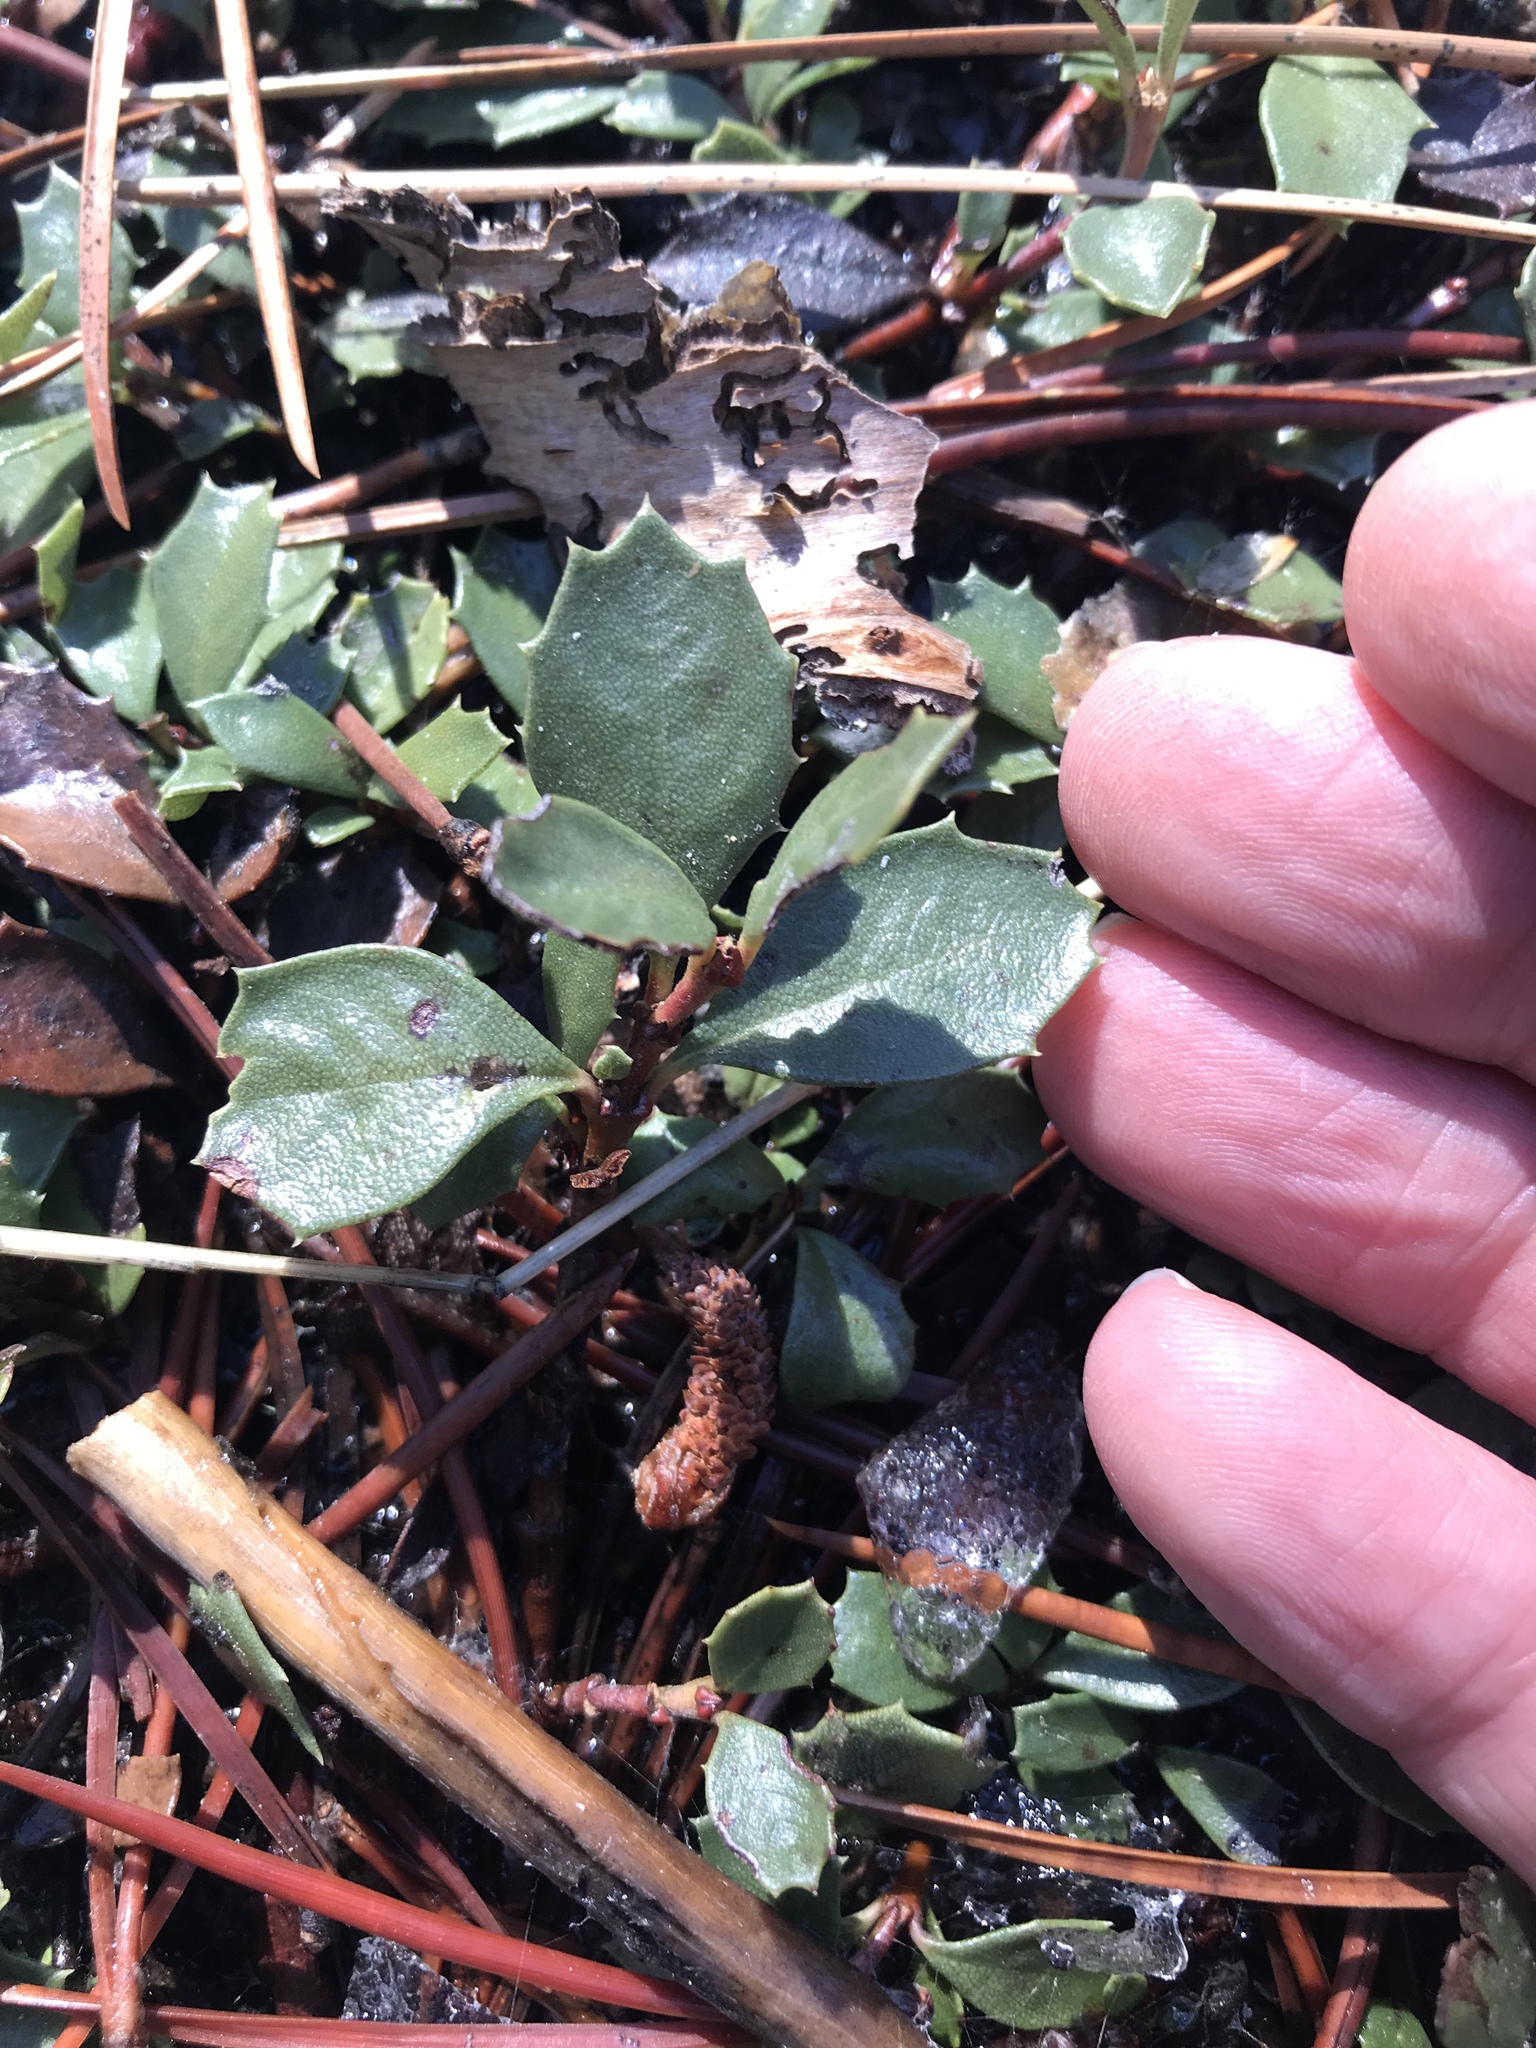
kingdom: Plantae
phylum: Tracheophyta
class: Magnoliopsida
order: Rosales
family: Rhamnaceae
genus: Ceanothus
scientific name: Ceanothus prostratus
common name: Mahala-mat
